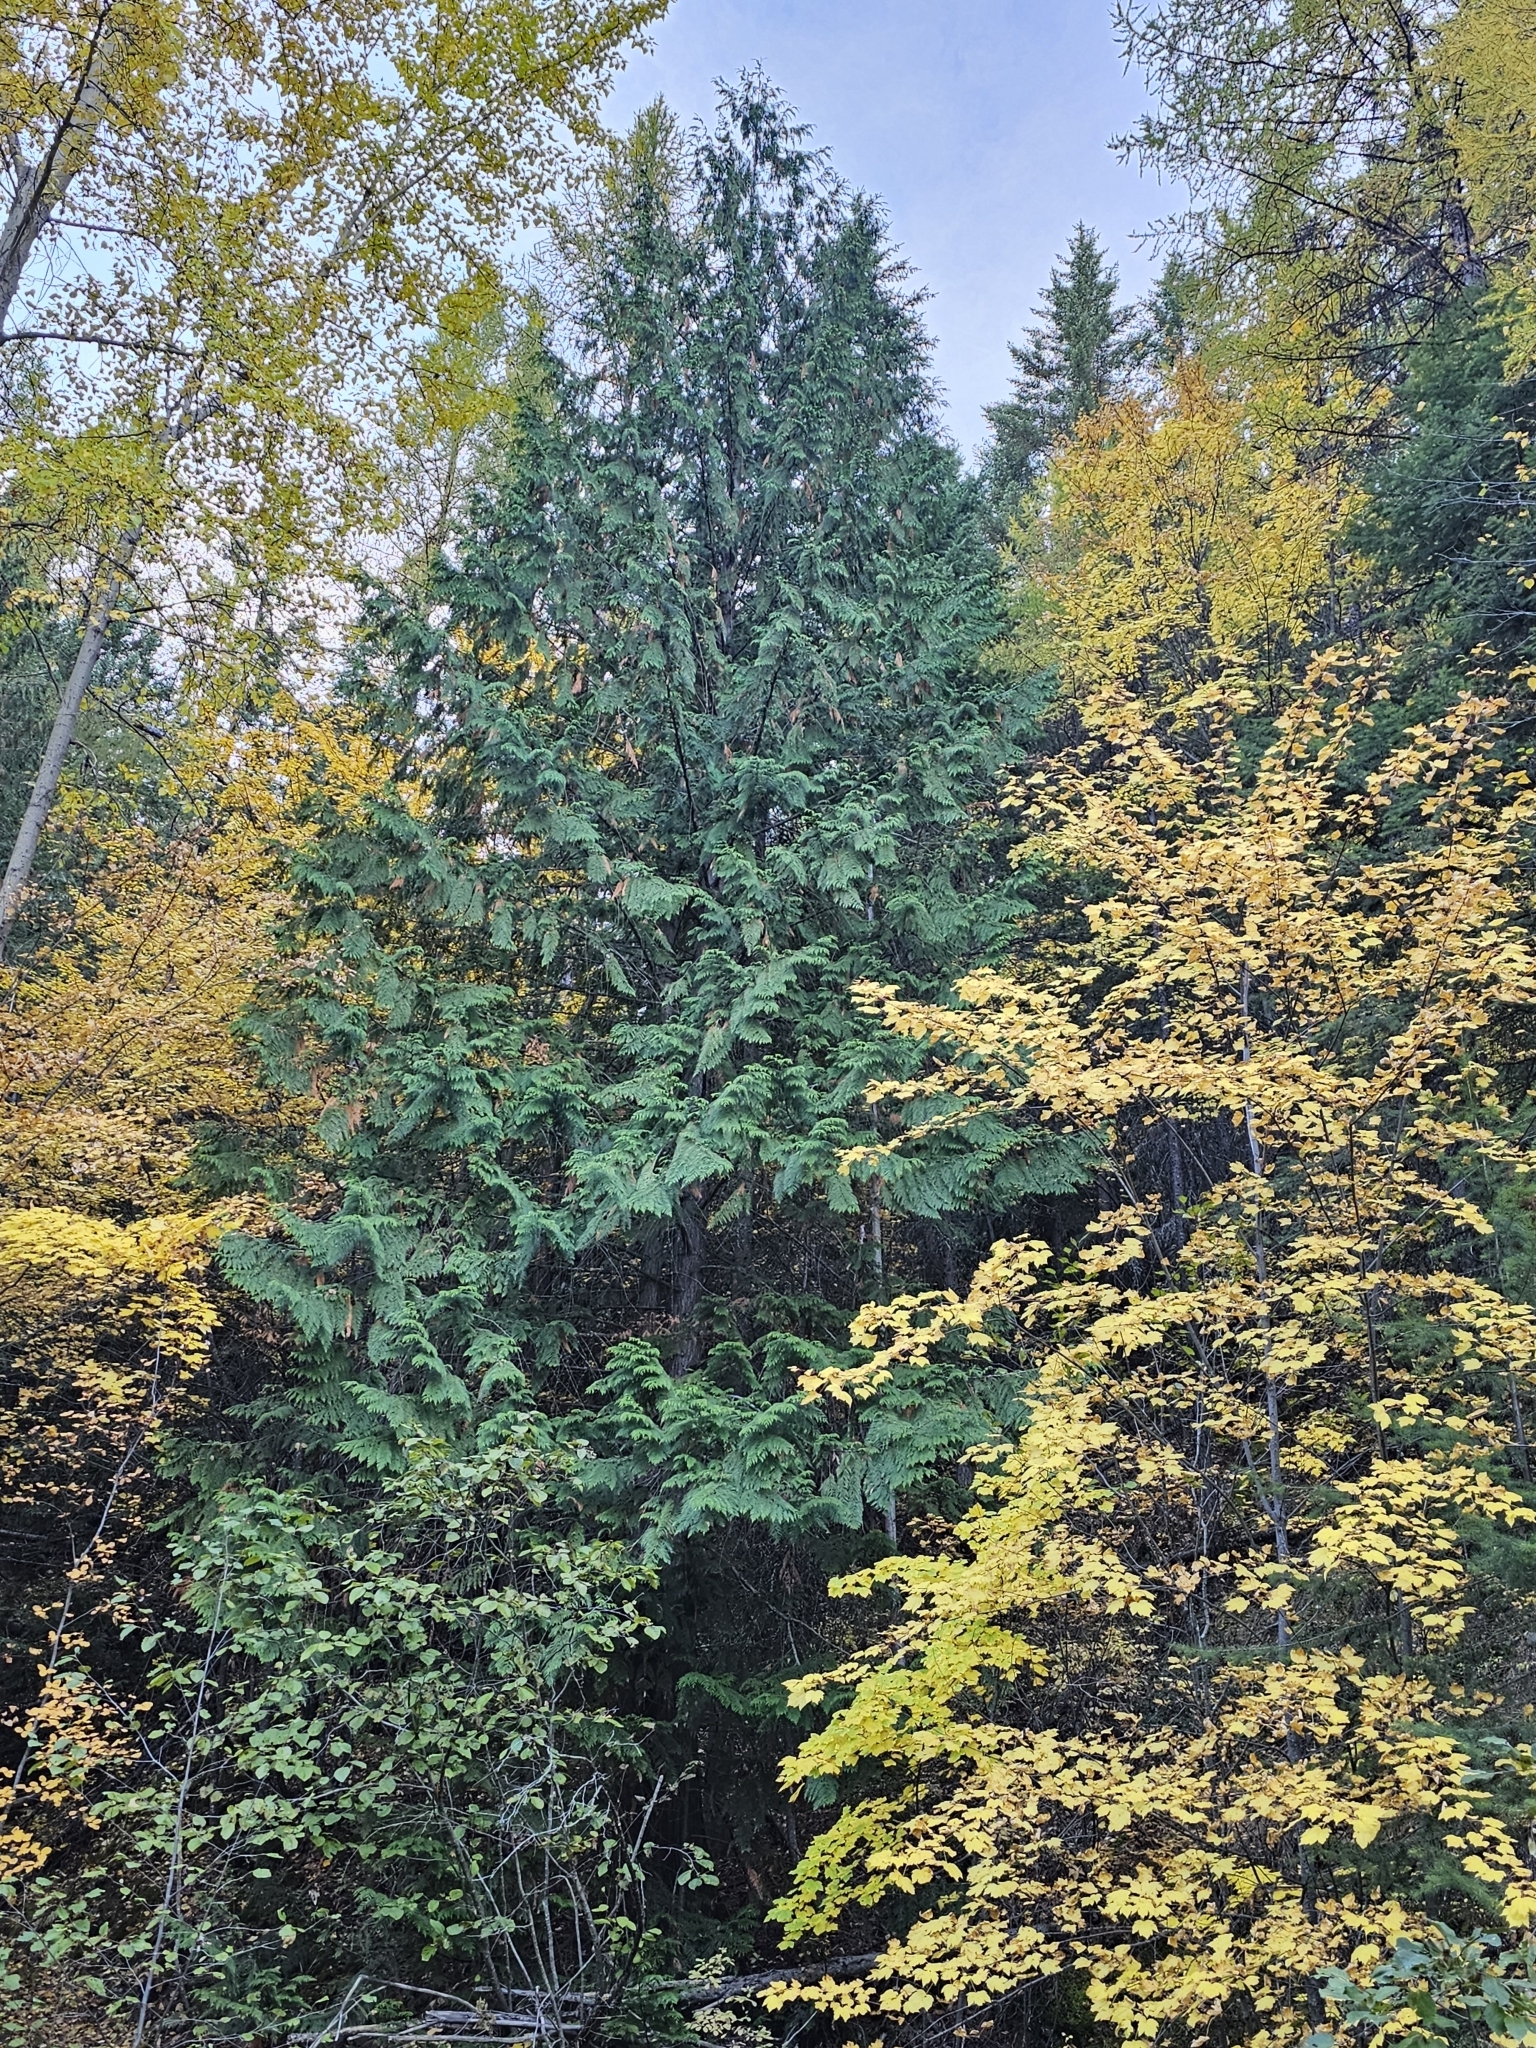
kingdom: Plantae
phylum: Tracheophyta
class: Pinopsida
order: Pinales
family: Cupressaceae
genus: Thuja
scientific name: Thuja plicata
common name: Western red-cedar
